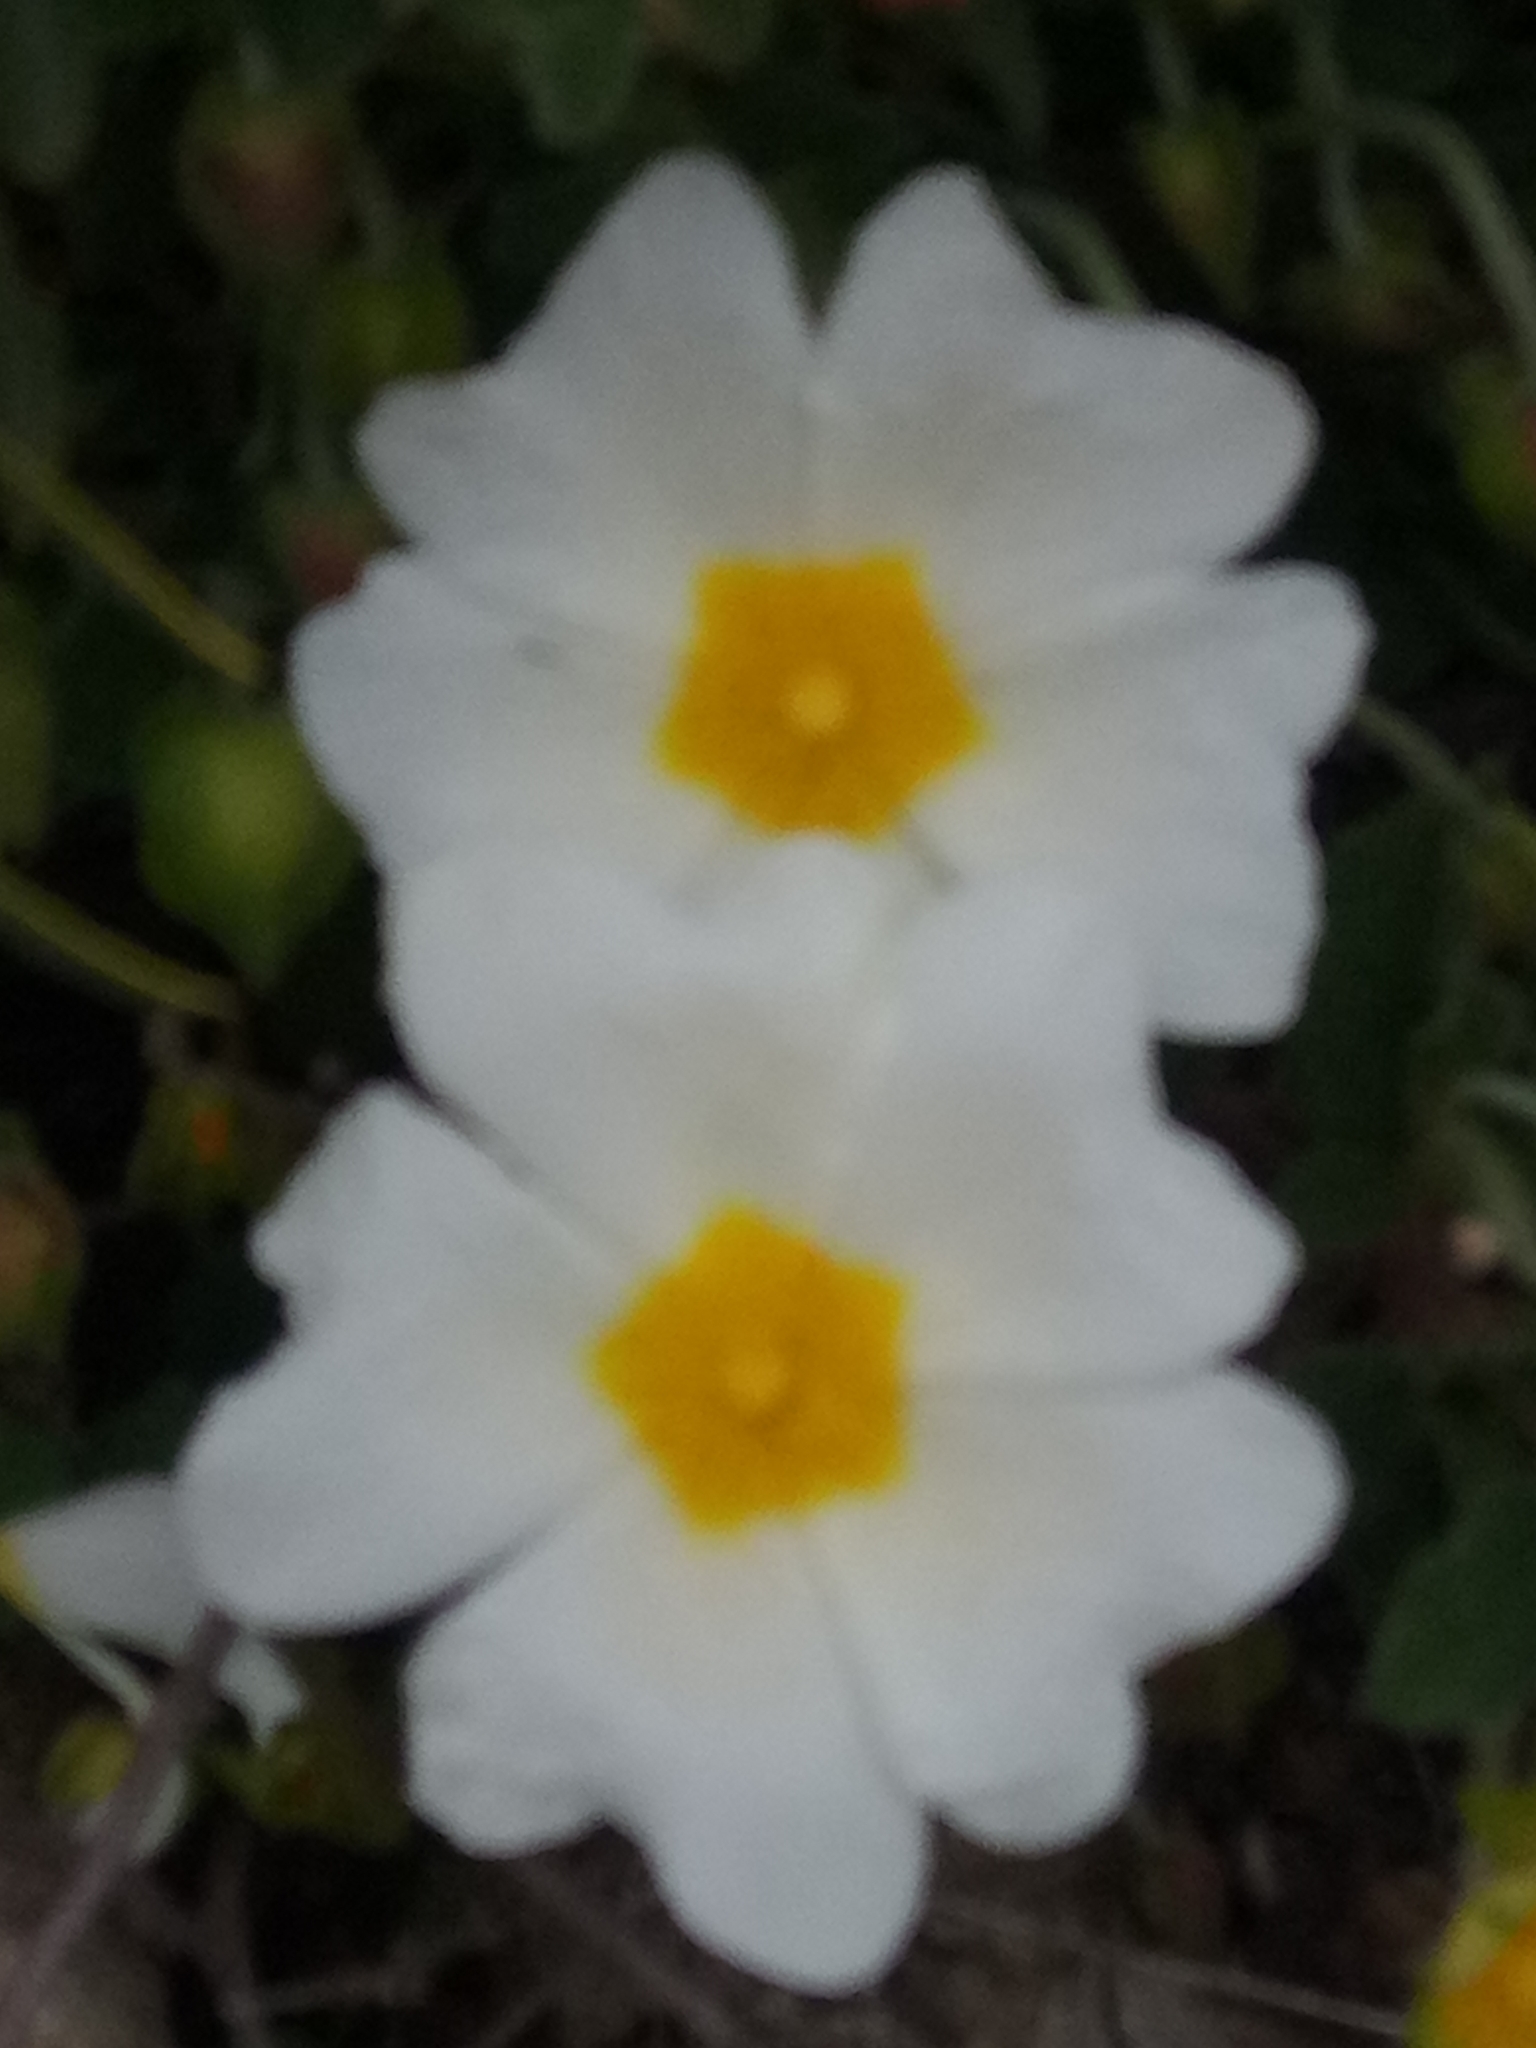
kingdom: Plantae
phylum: Tracheophyta
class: Magnoliopsida
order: Malvales
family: Cistaceae
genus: Cistus
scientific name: Cistus salviifolius
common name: Salvia cistus
